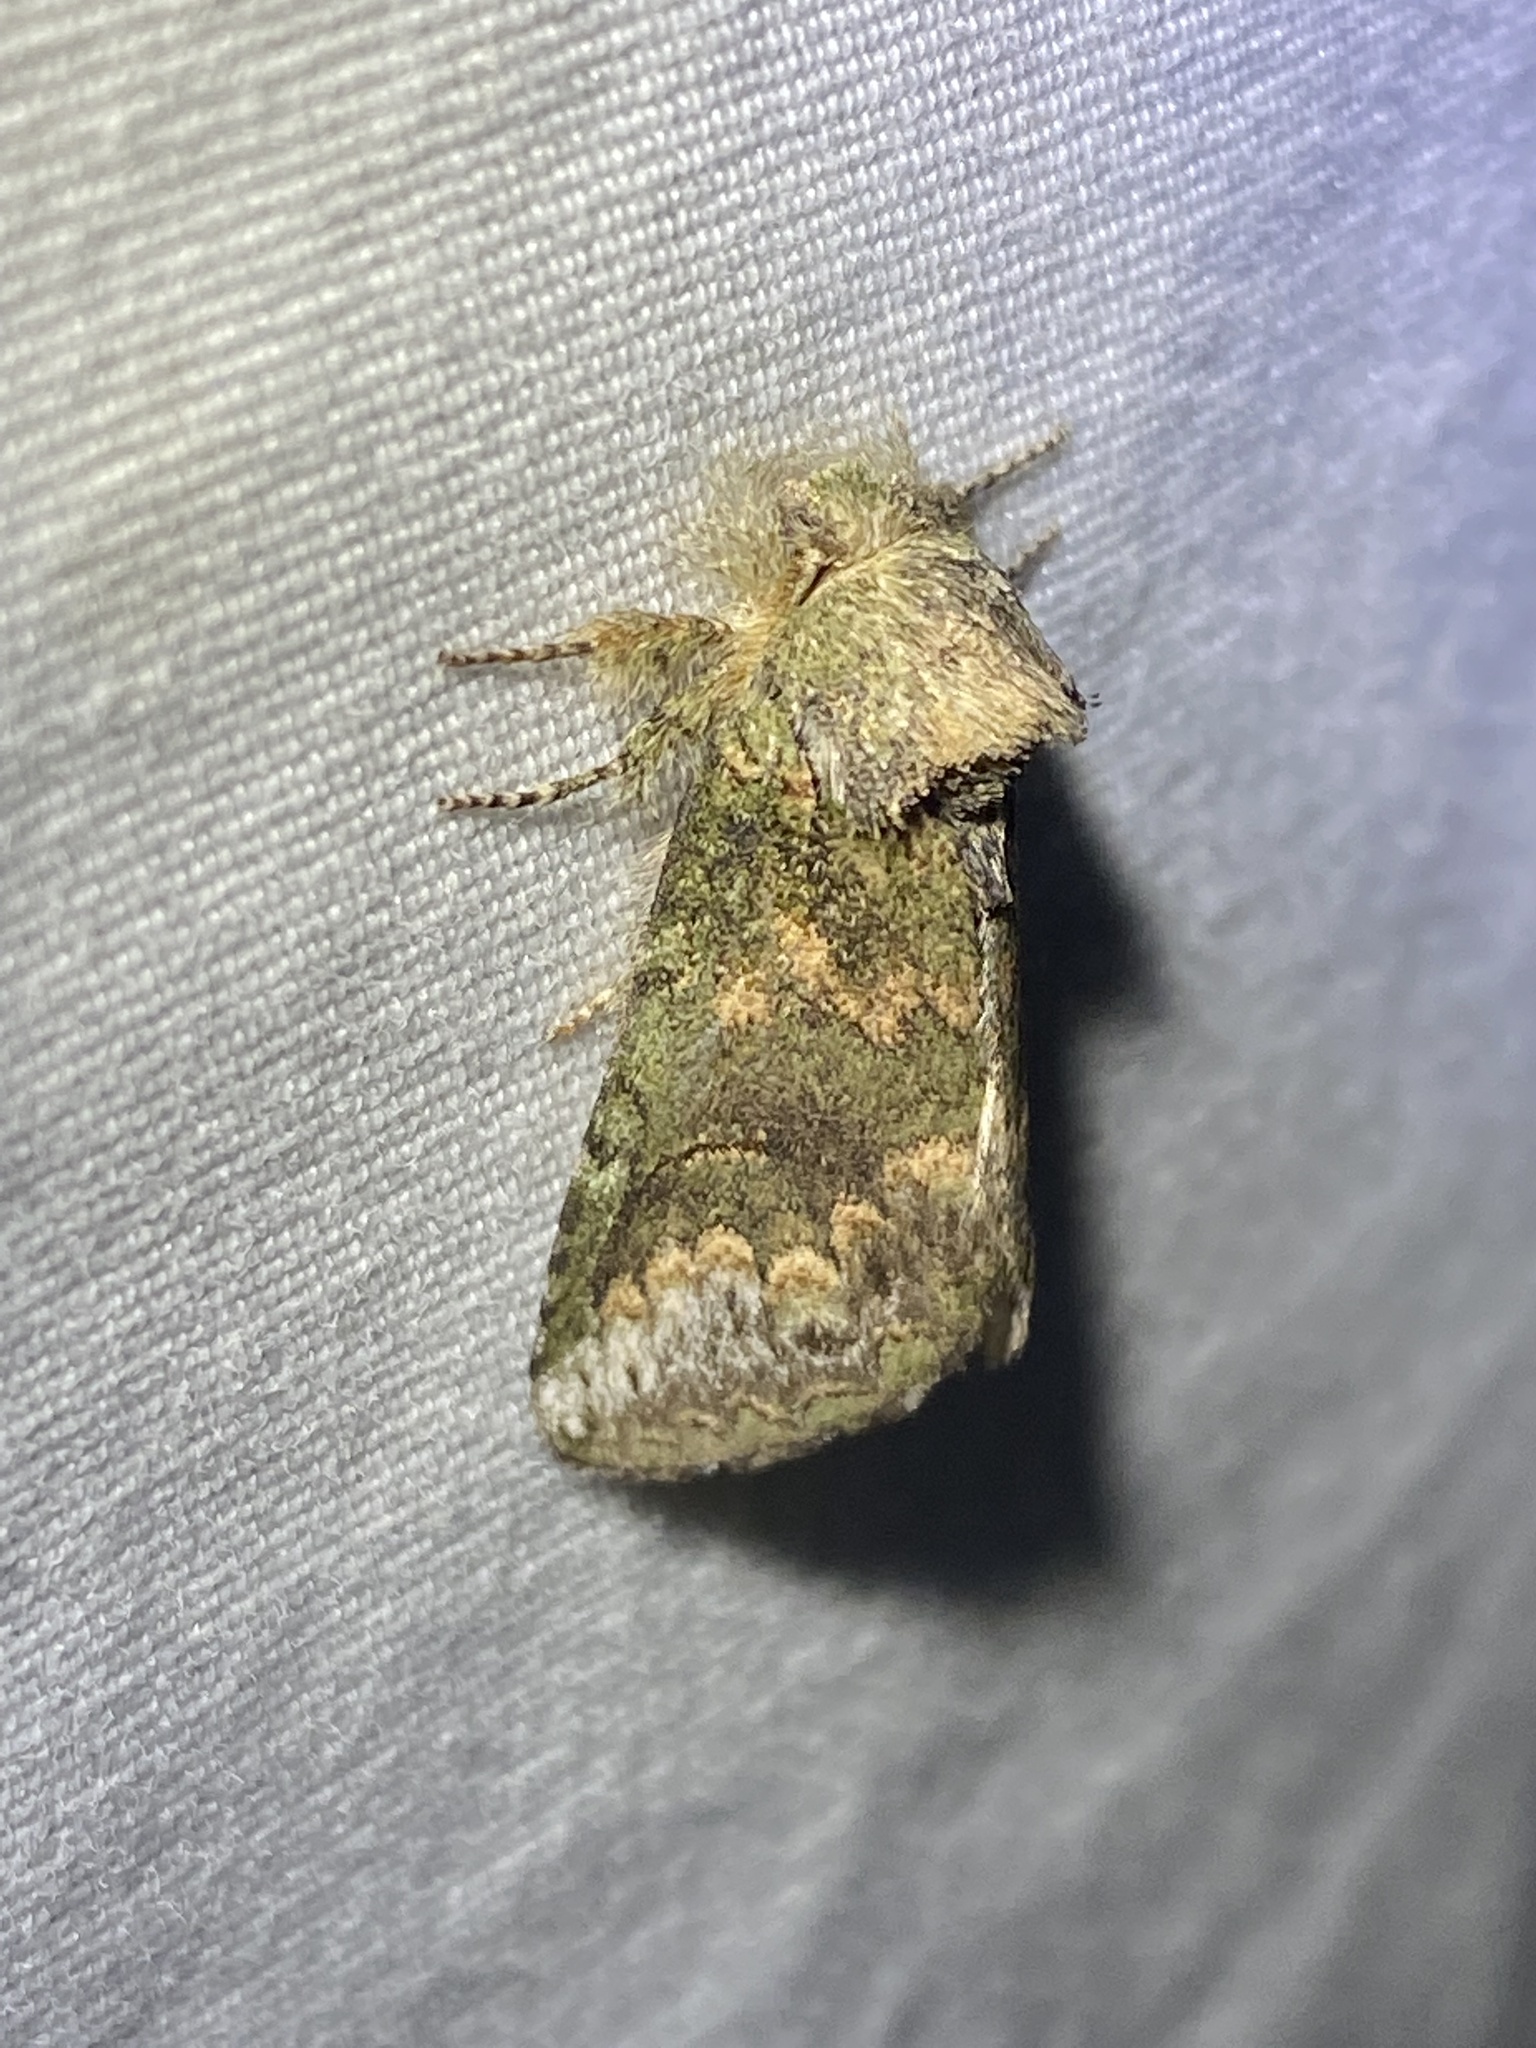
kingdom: Animalia
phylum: Arthropoda
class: Insecta
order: Lepidoptera
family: Notodontidae
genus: Rifargia
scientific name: Rifargia
